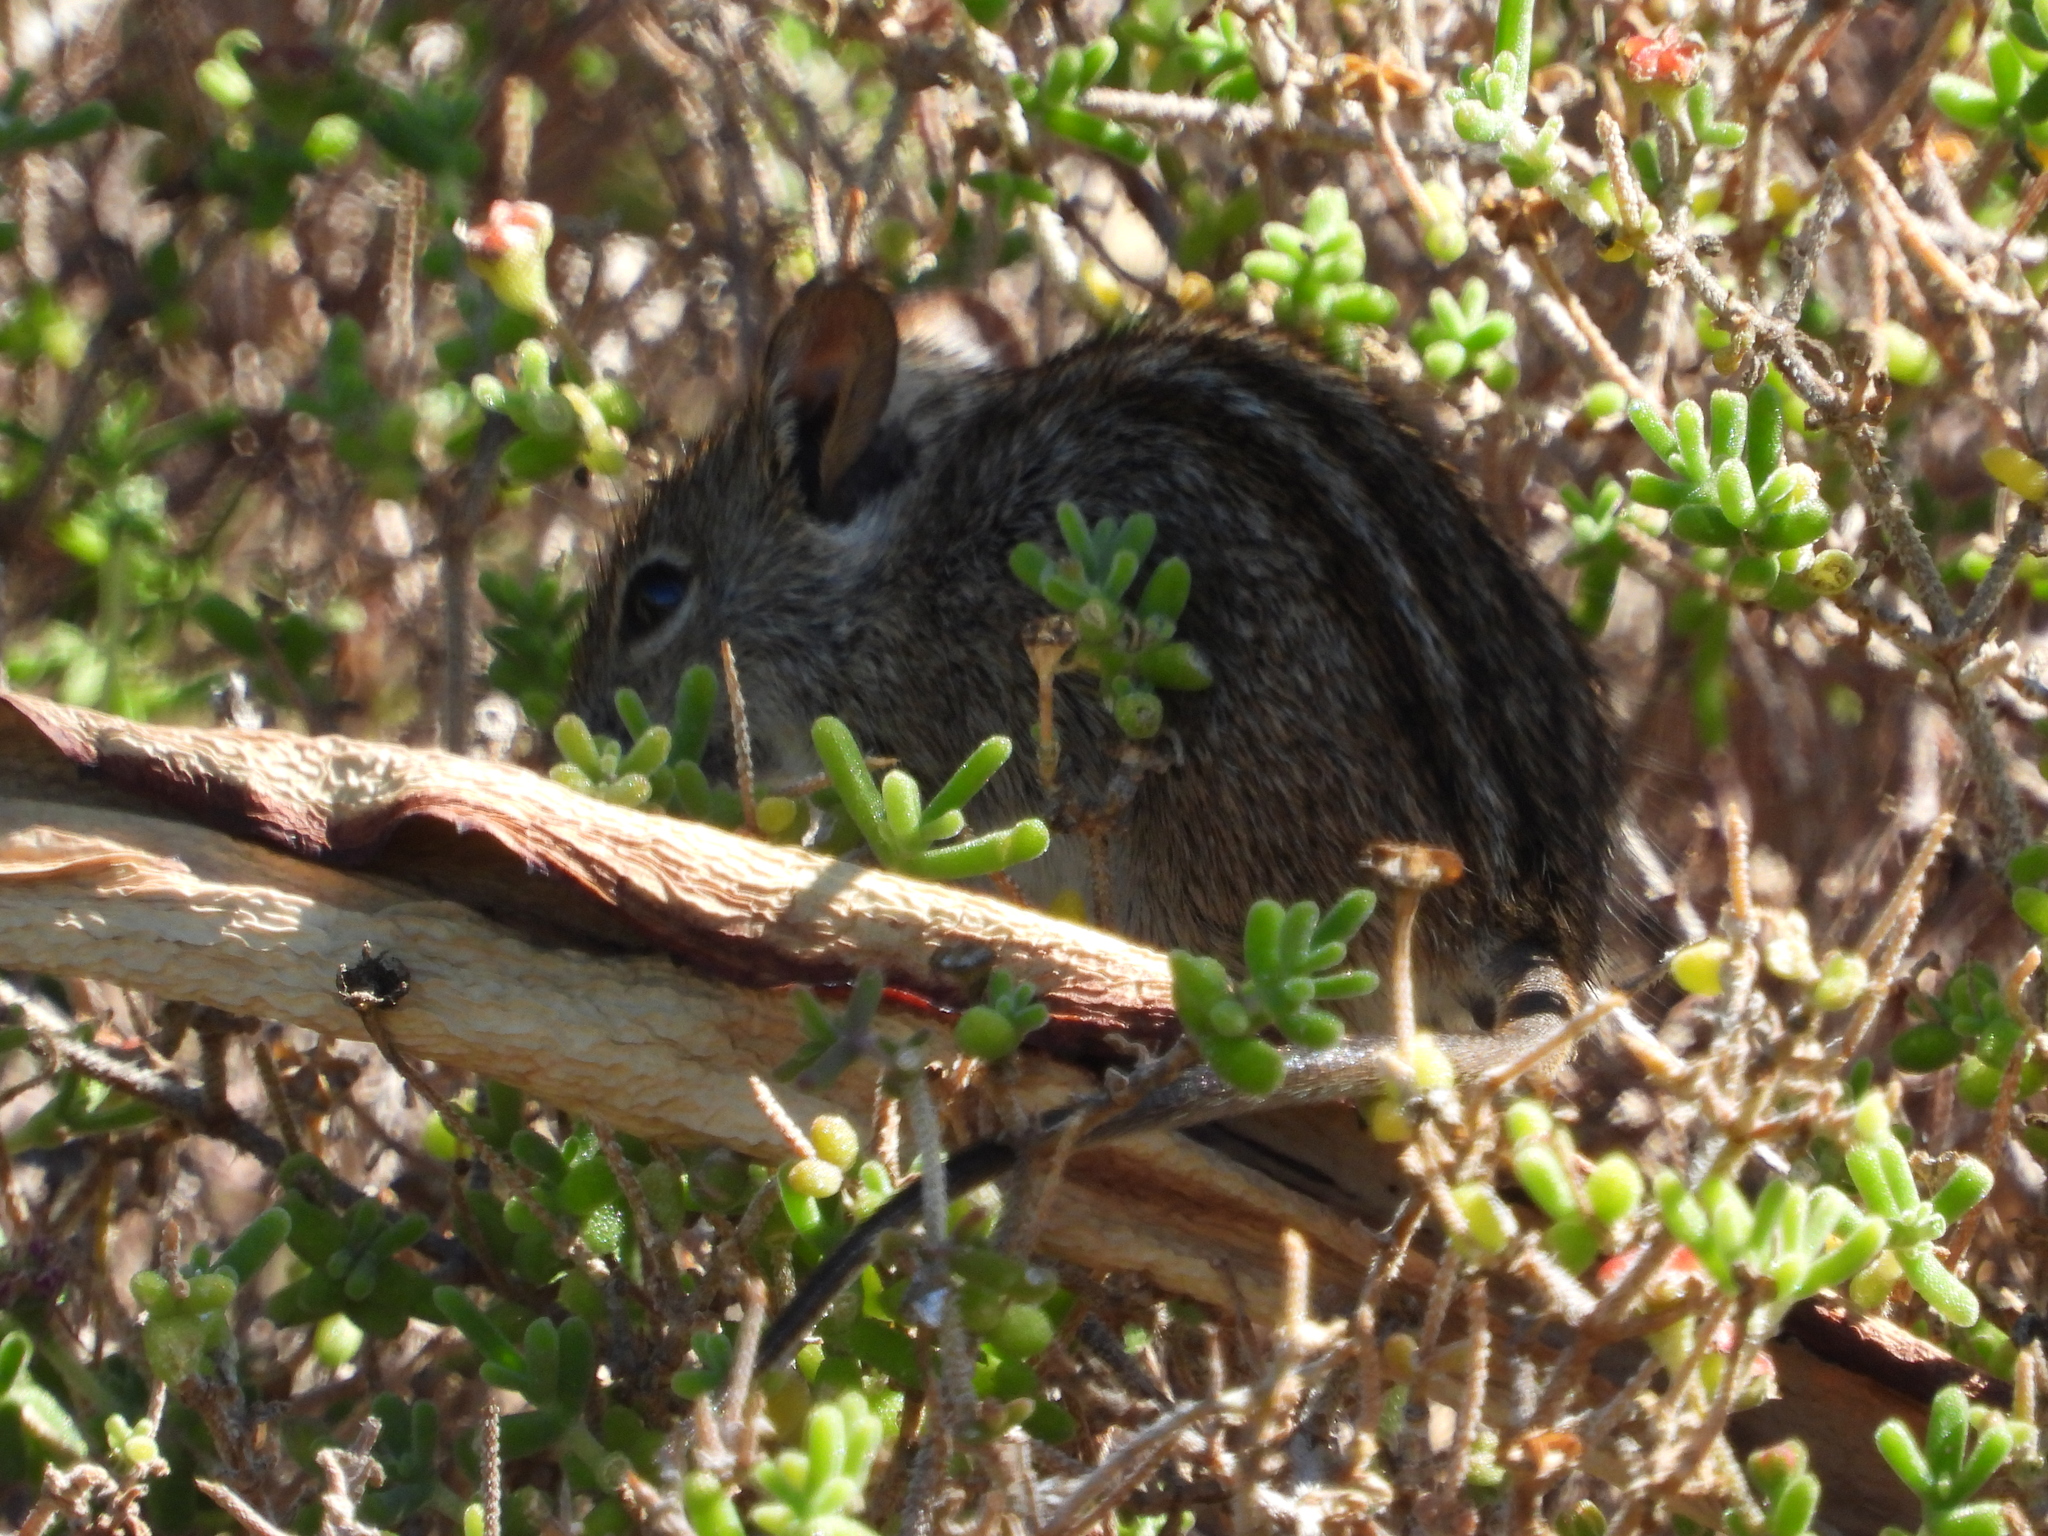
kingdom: Animalia
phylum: Chordata
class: Mammalia
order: Rodentia
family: Muridae
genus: Rhabdomys
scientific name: Rhabdomys pumilio
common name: Xeric four-striped grass rat
